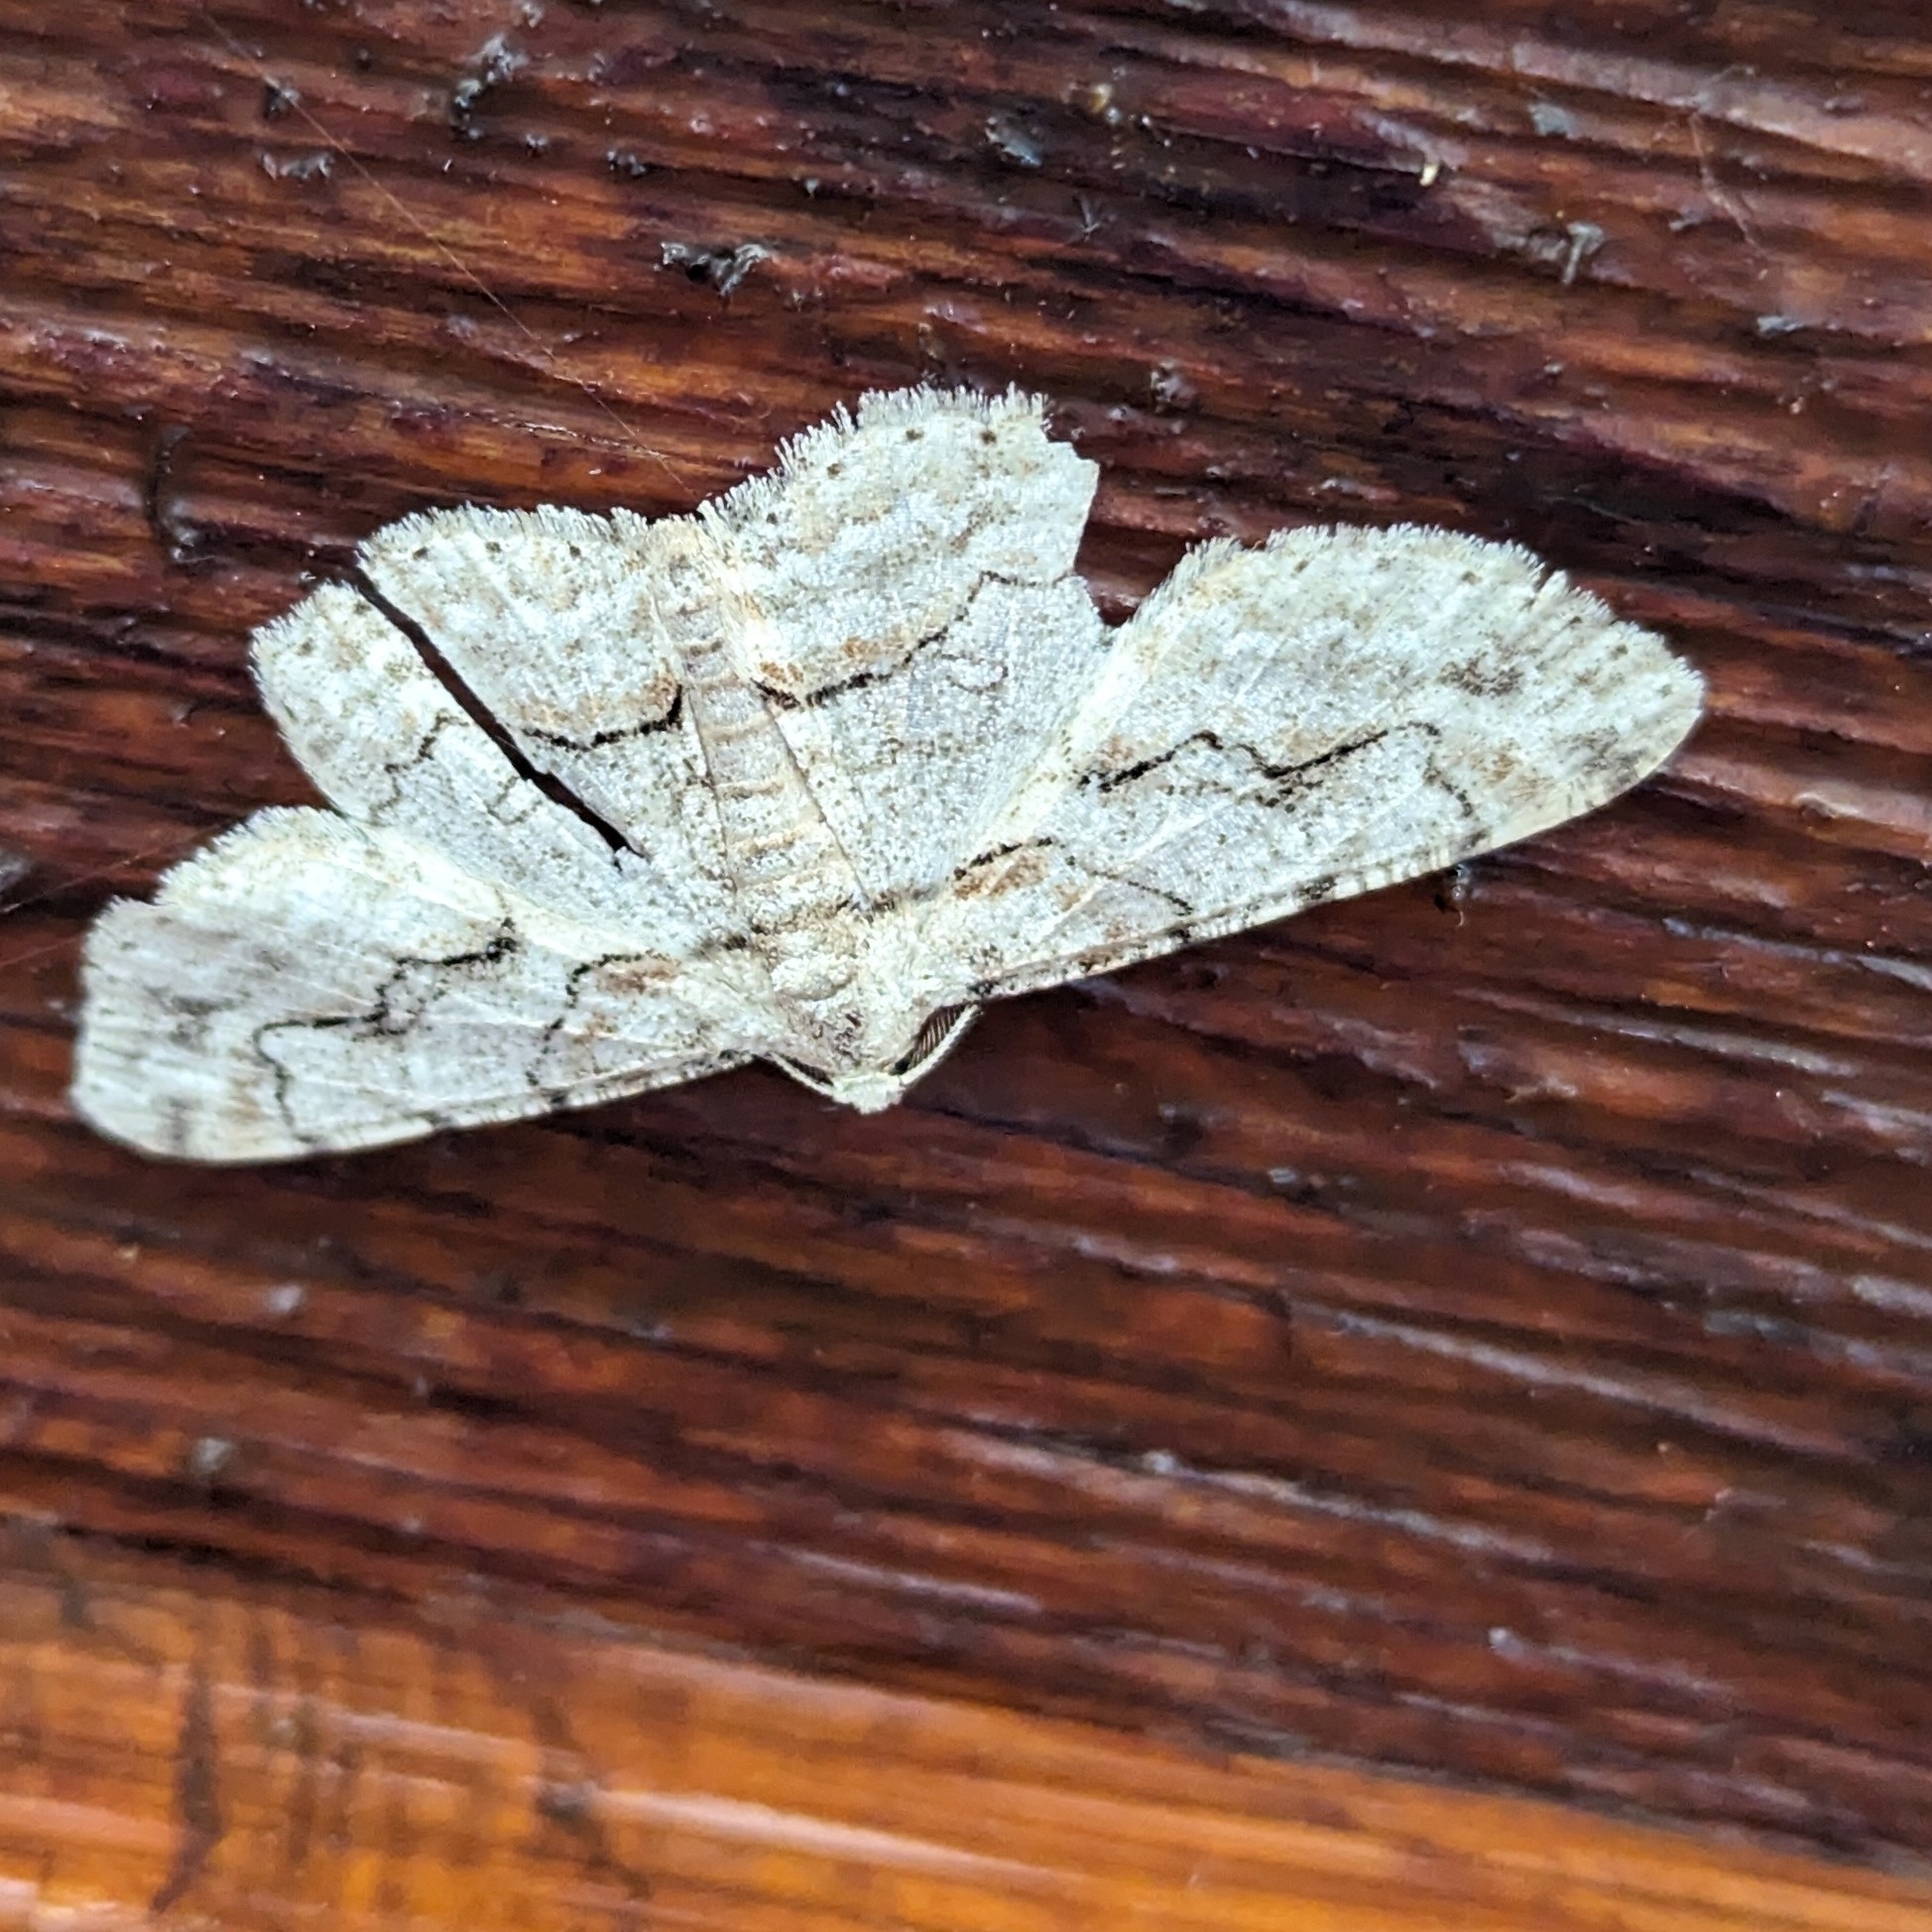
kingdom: Animalia
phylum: Arthropoda
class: Insecta
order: Lepidoptera
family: Geometridae
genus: Iridopsis
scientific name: Iridopsis defectaria
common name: Brown-shaded gray
